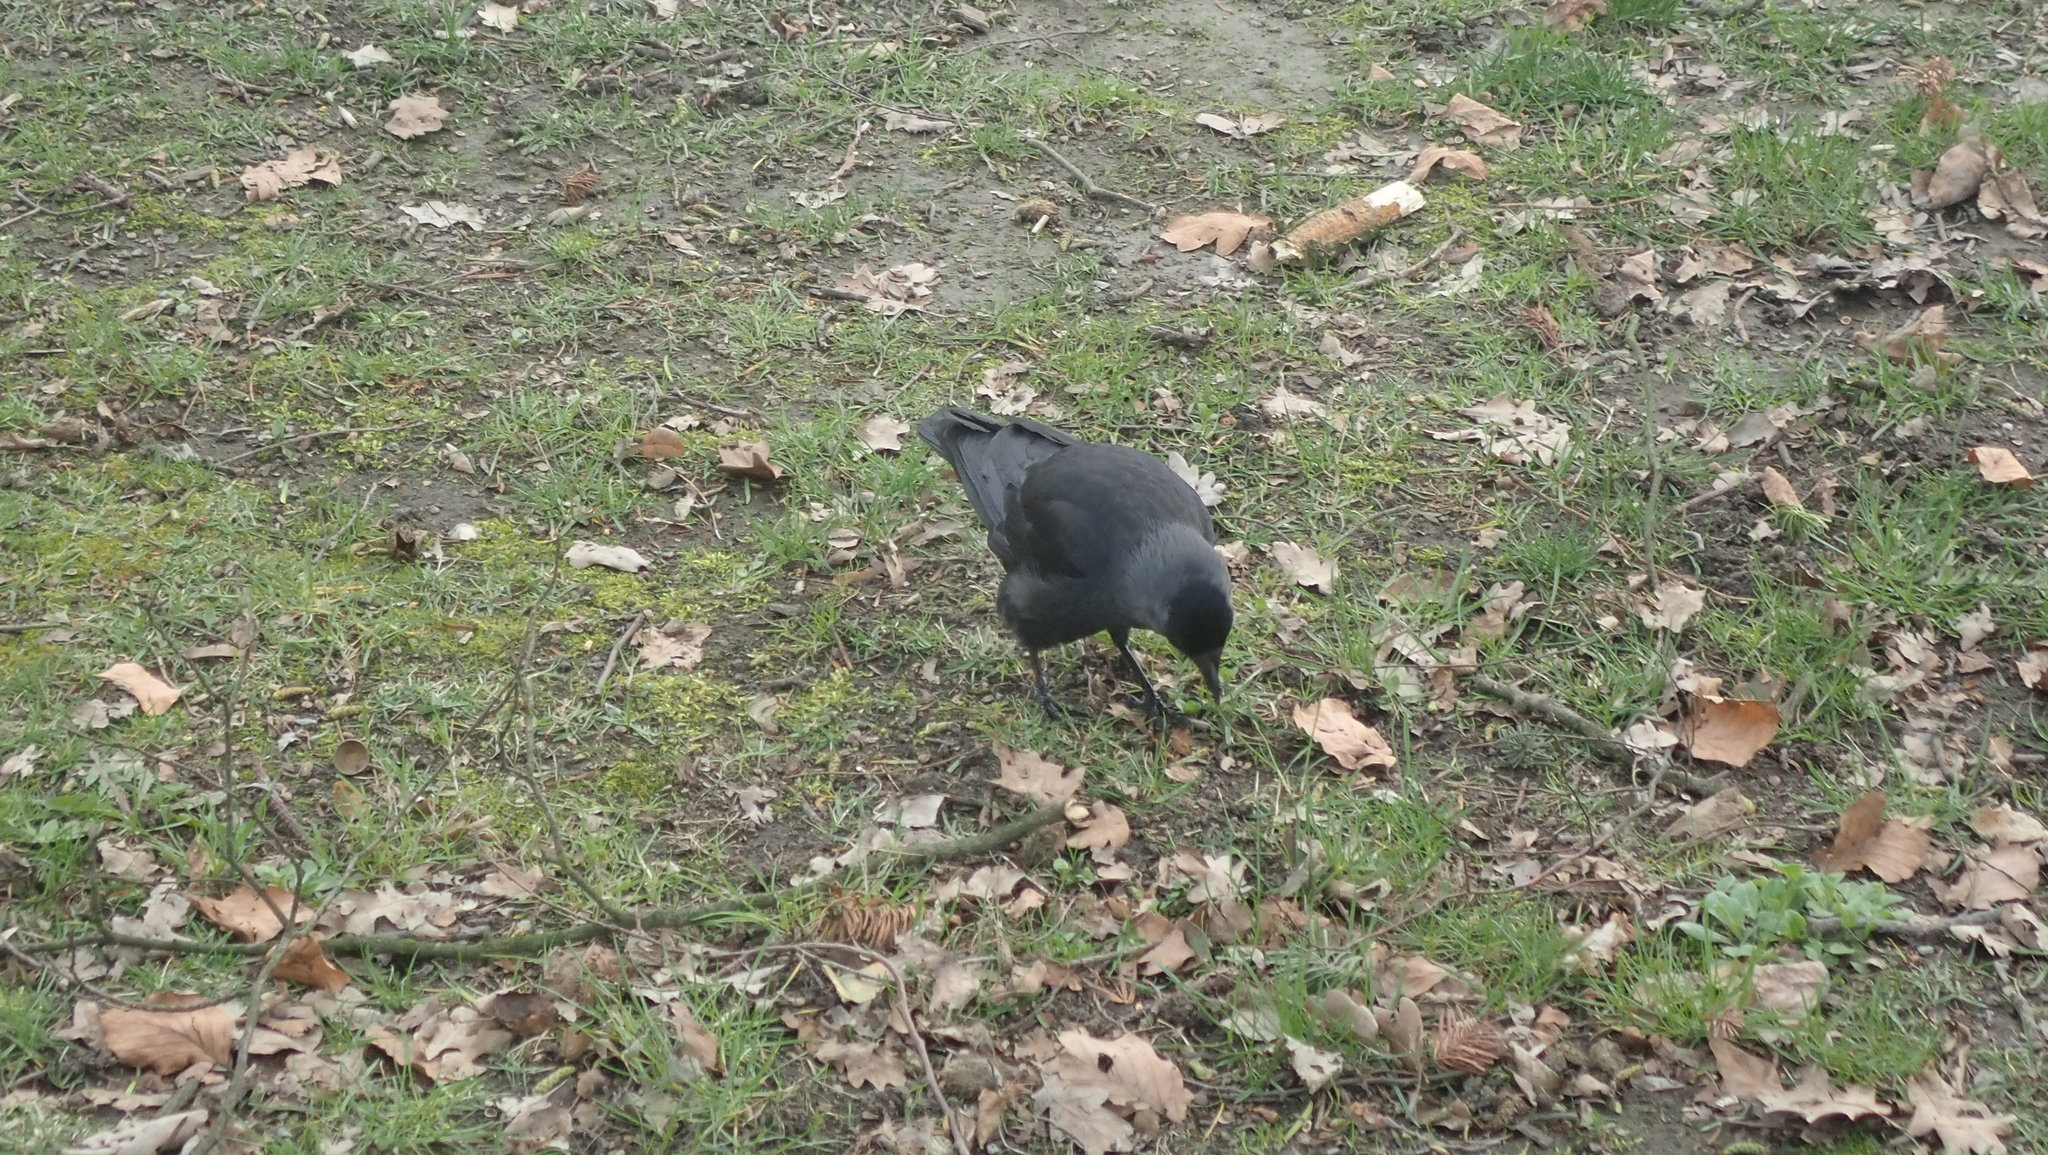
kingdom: Animalia
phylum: Chordata
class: Aves
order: Passeriformes
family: Corvidae
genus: Coloeus
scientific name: Coloeus monedula
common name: Western jackdaw
